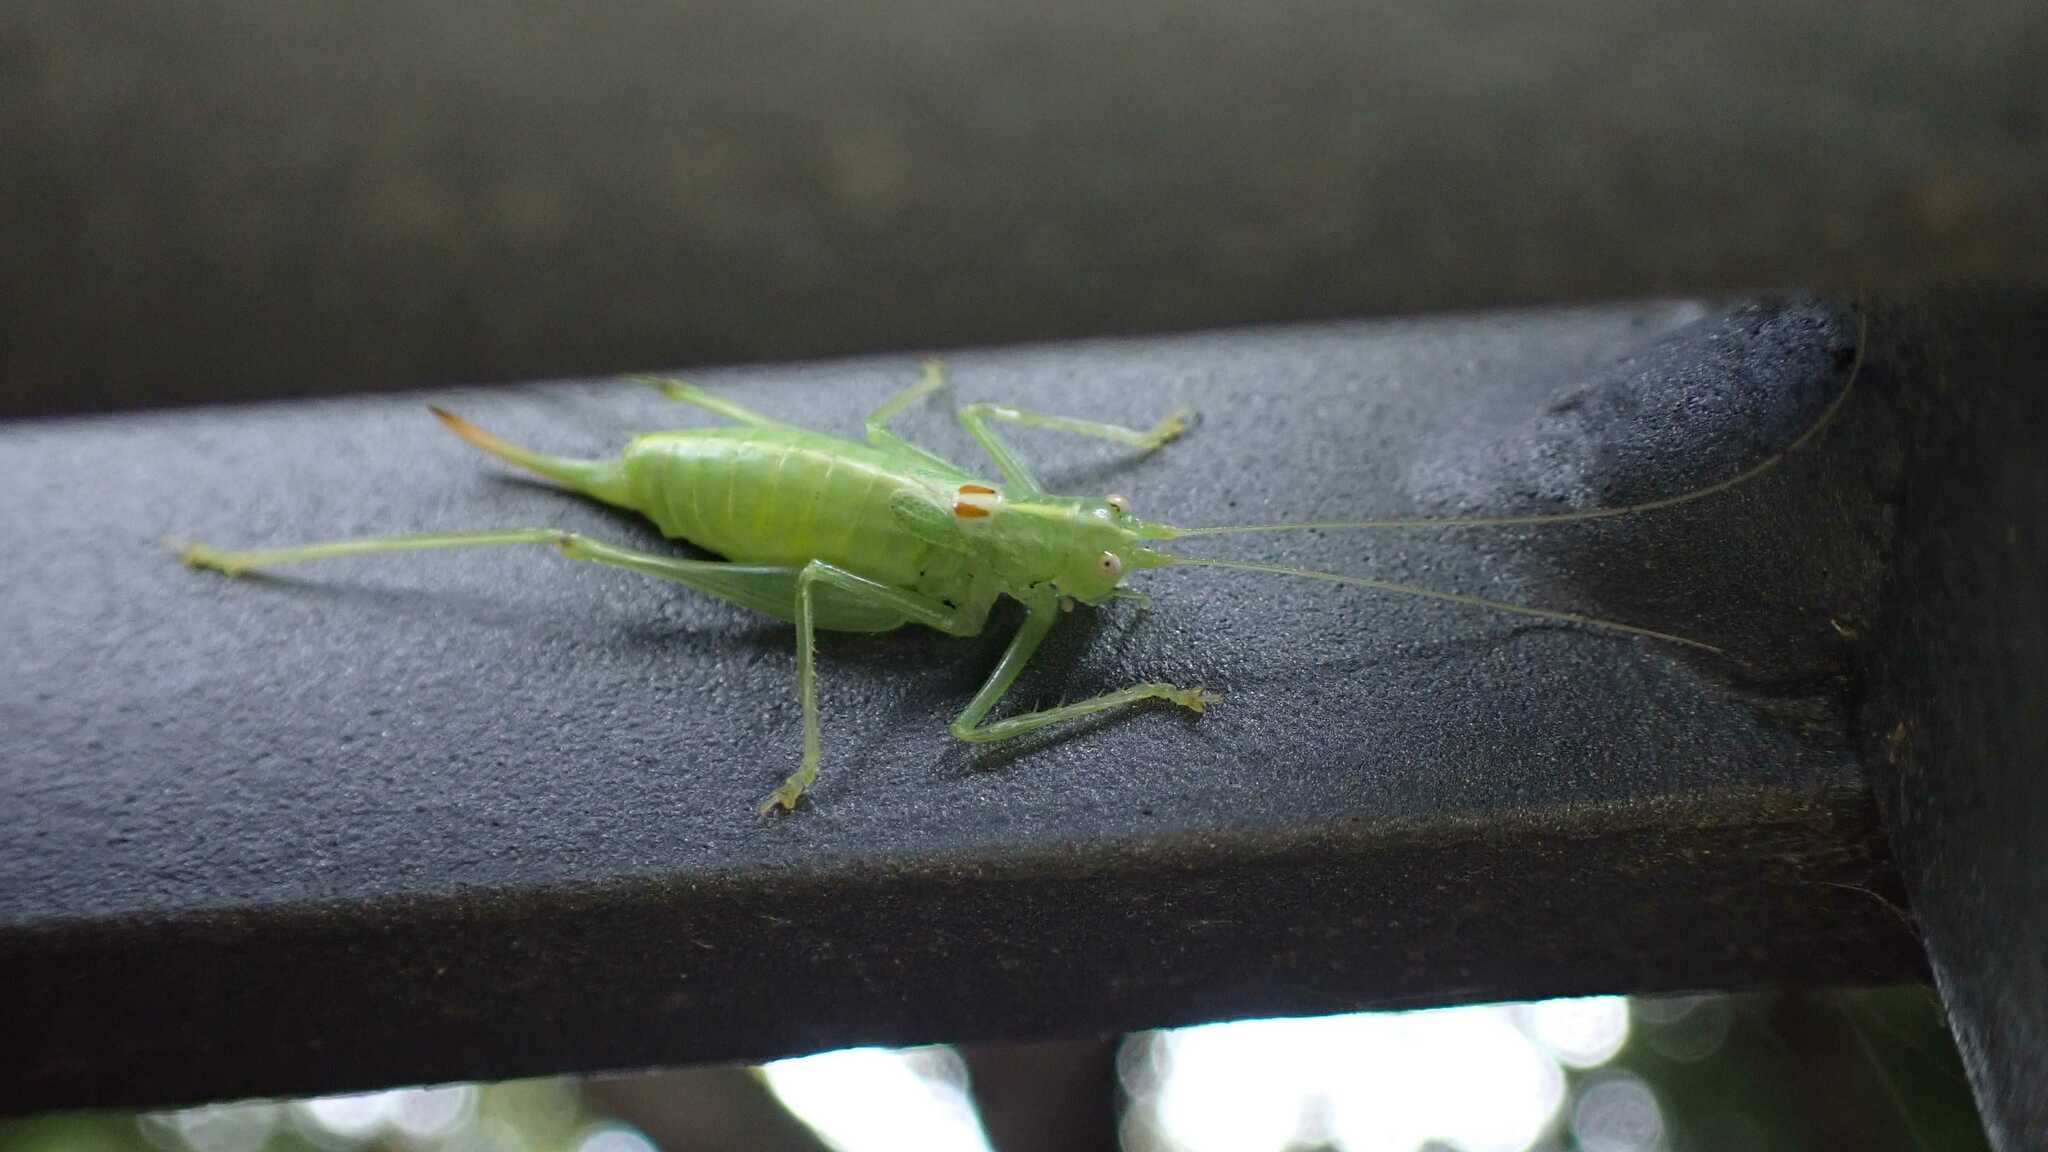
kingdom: Animalia
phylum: Arthropoda
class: Insecta
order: Orthoptera
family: Tettigoniidae
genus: Meconema
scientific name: Meconema meridionale
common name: Southern oak bush-cricket
